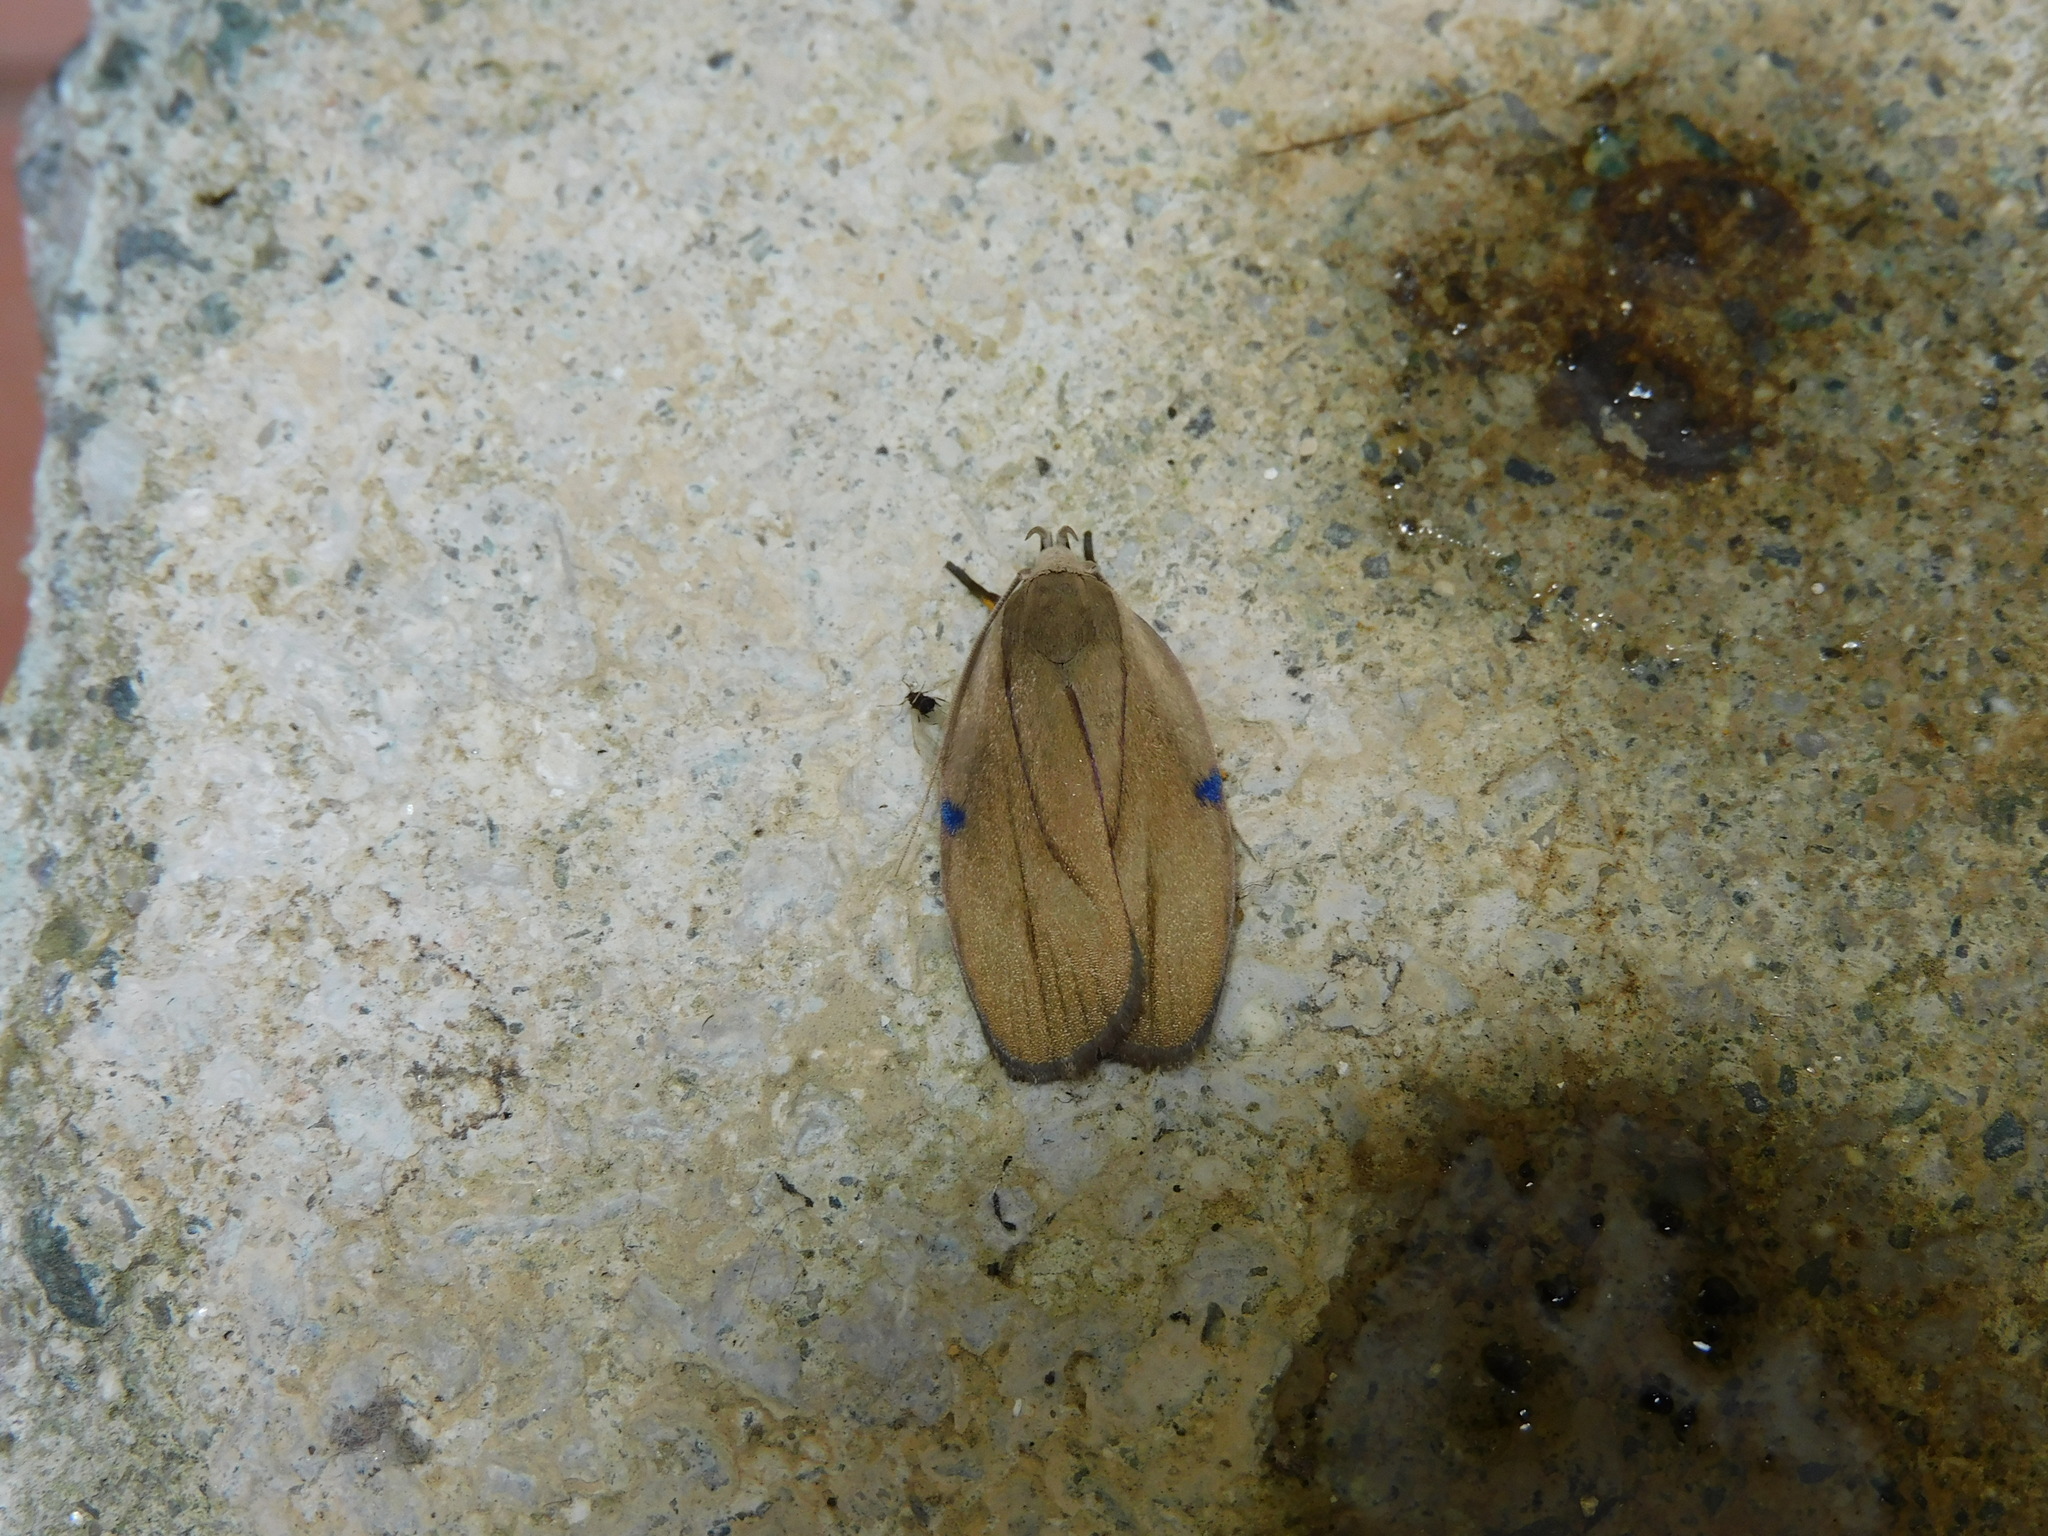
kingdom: Animalia
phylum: Arthropoda
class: Insecta
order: Lepidoptera
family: Depressariidae
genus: Stenoma
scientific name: Stenoma exarata
